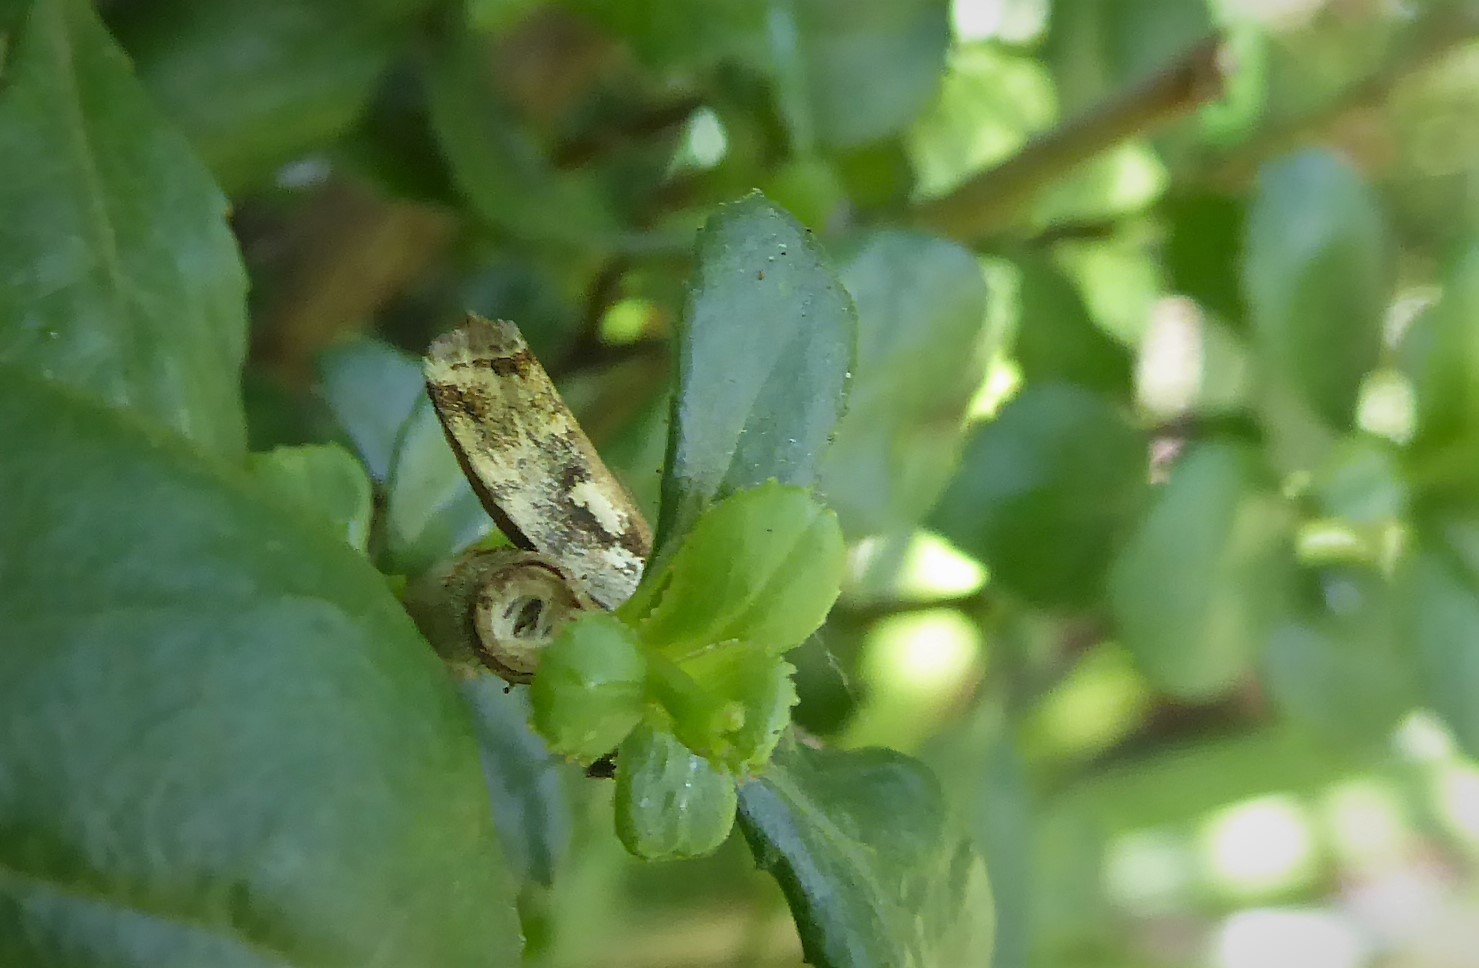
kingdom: Animalia
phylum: Arthropoda
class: Insecta
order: Lepidoptera
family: Crambidae
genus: Orocrambus
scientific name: Orocrambus vulgaris
